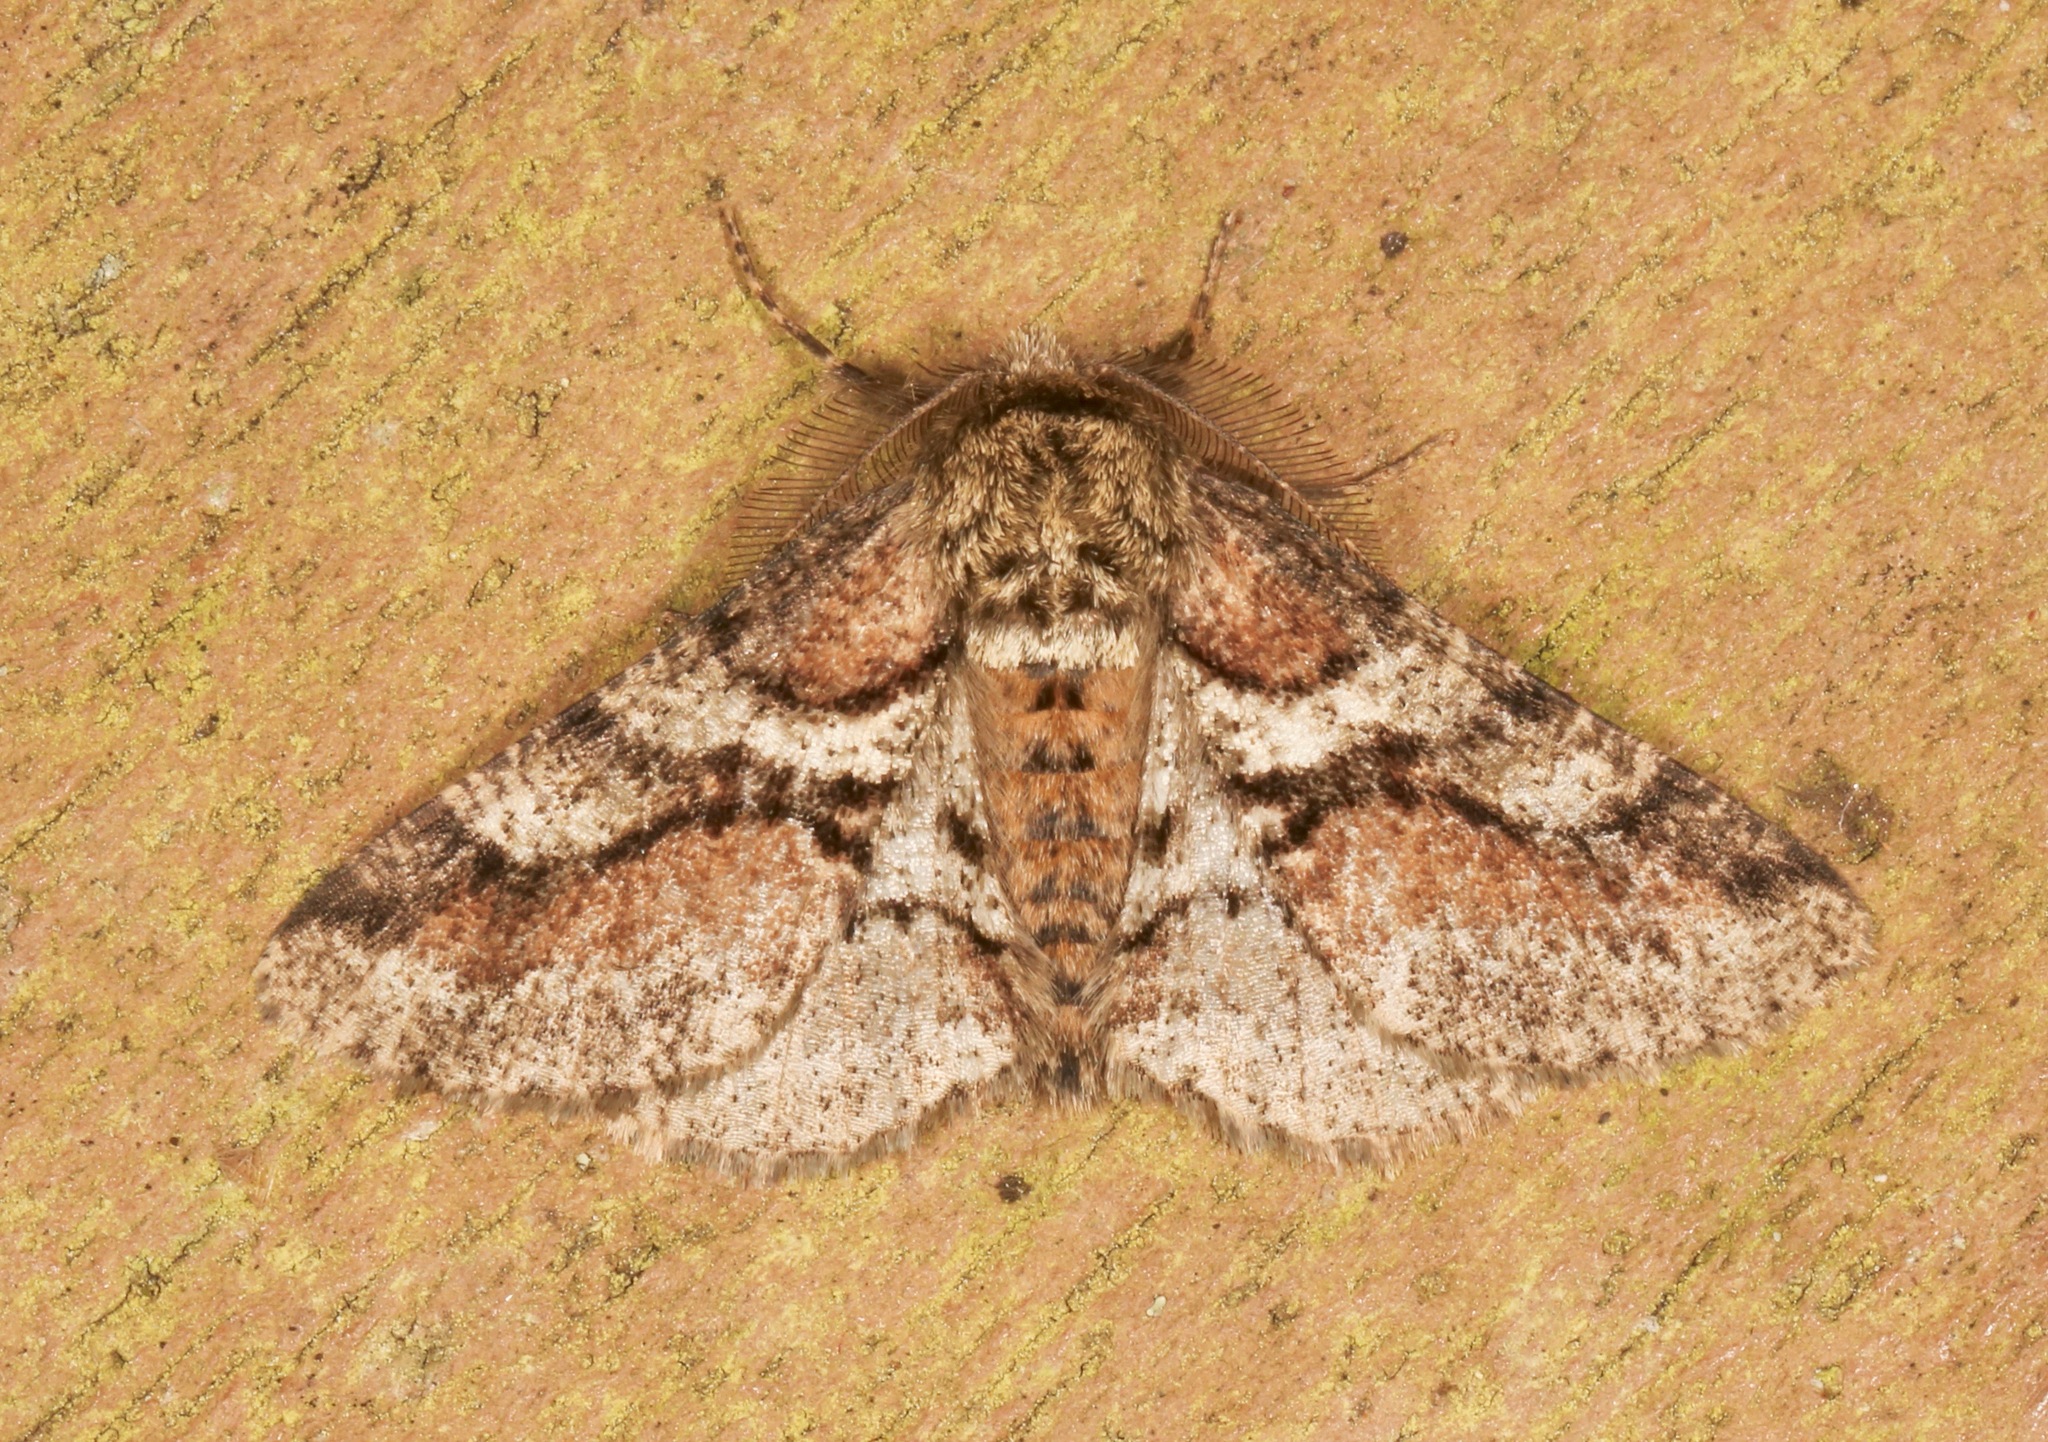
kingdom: Animalia
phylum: Arthropoda
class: Insecta
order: Lepidoptera
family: Geometridae
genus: Lycia
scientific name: Lycia ypsilon
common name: Wooly gray
